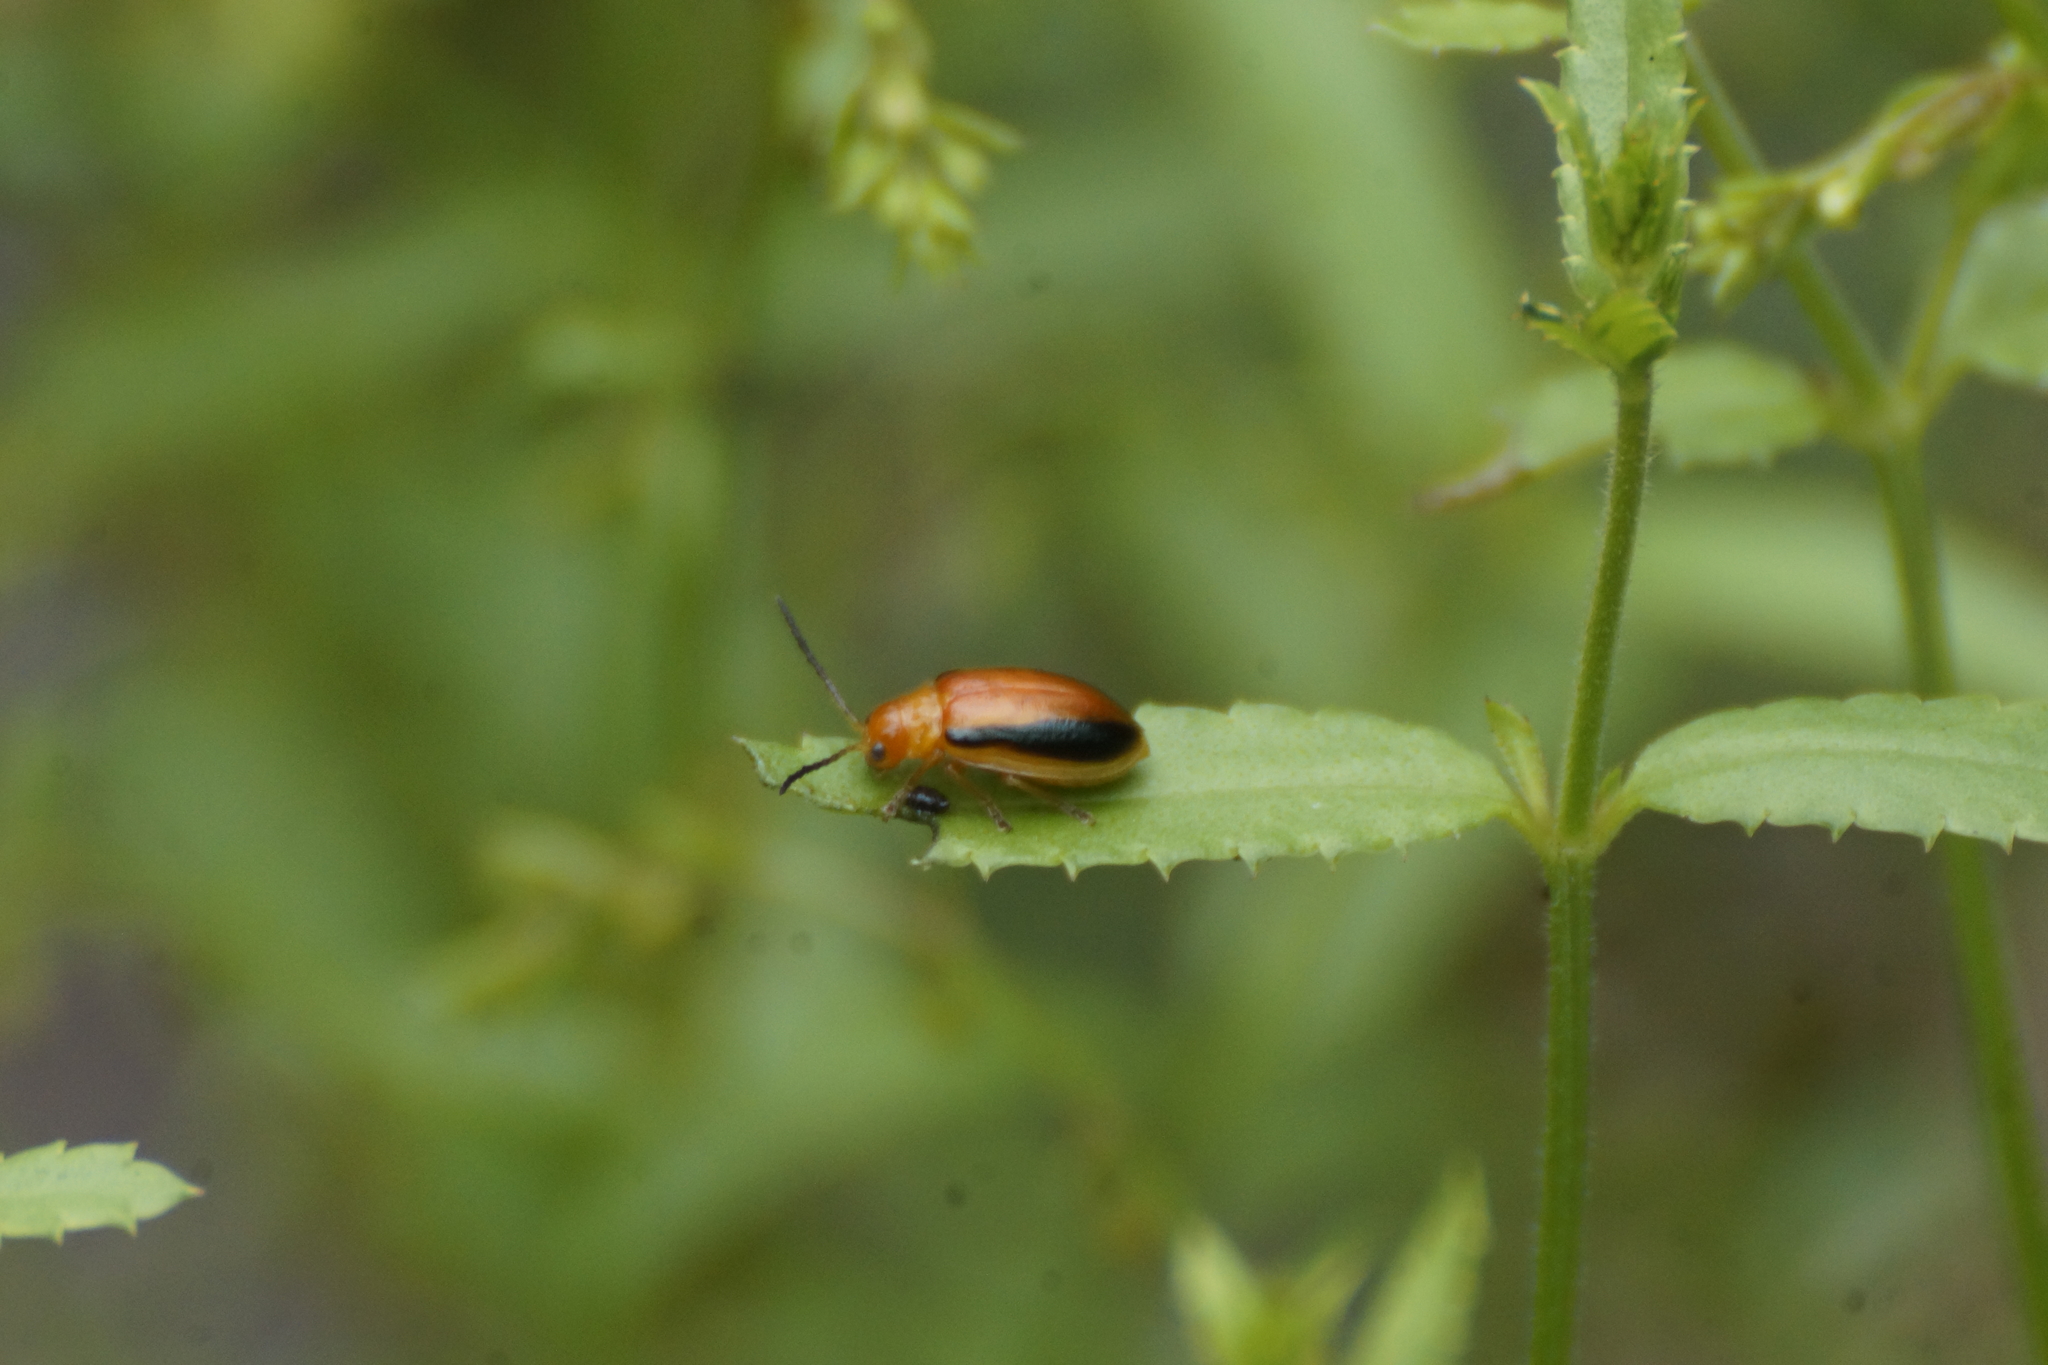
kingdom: Animalia
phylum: Arthropoda
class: Insecta
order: Coleoptera
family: Chrysomelidae
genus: Oides
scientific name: Oides
